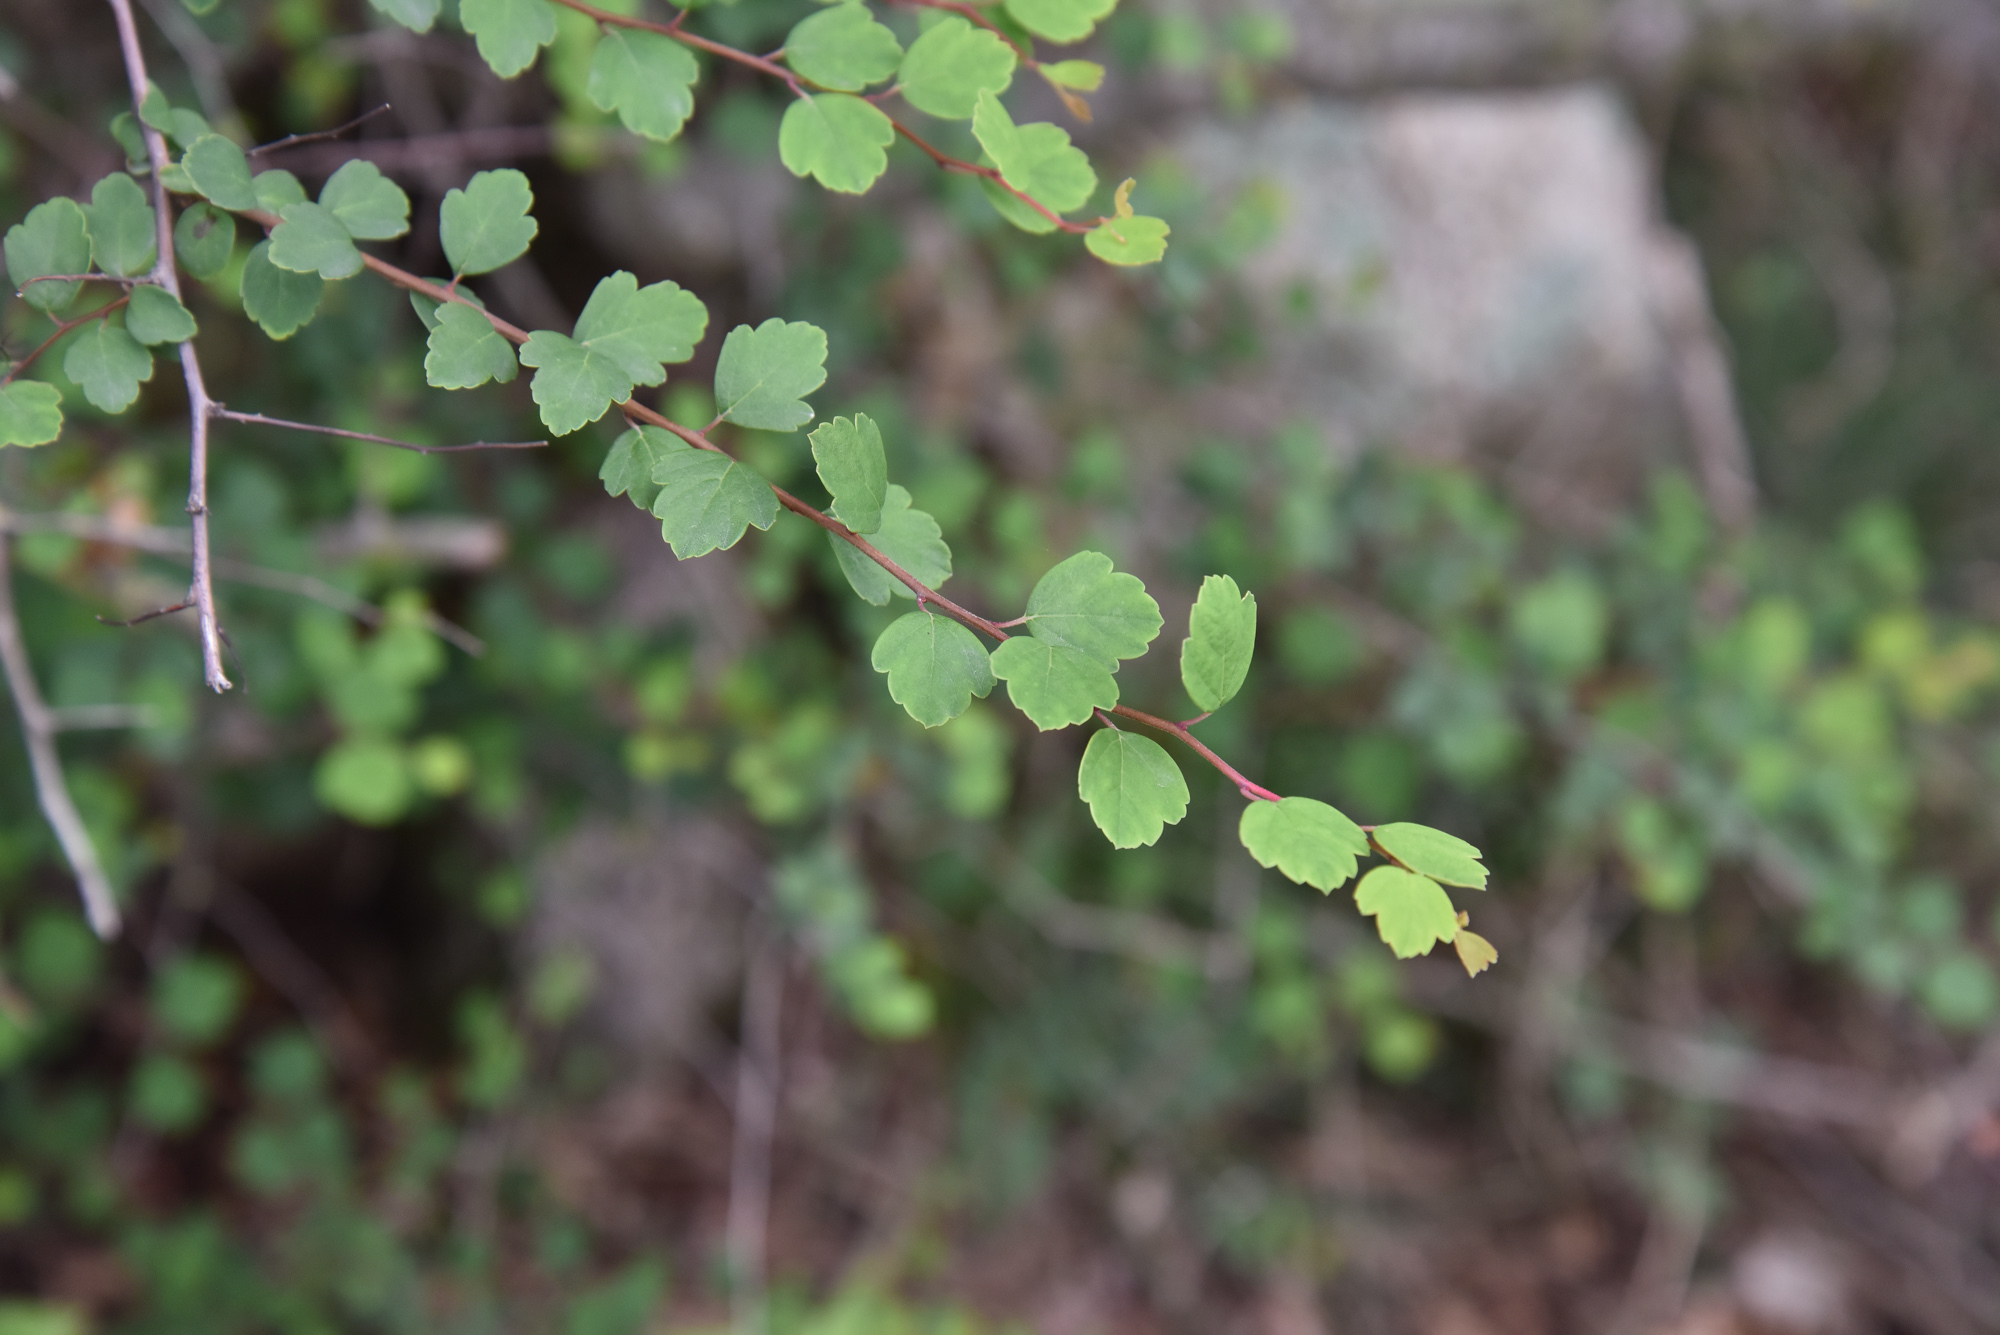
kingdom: Plantae
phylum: Tracheophyta
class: Magnoliopsida
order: Rosales
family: Rosaceae
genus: Spiraea
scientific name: Spiraea blumei
